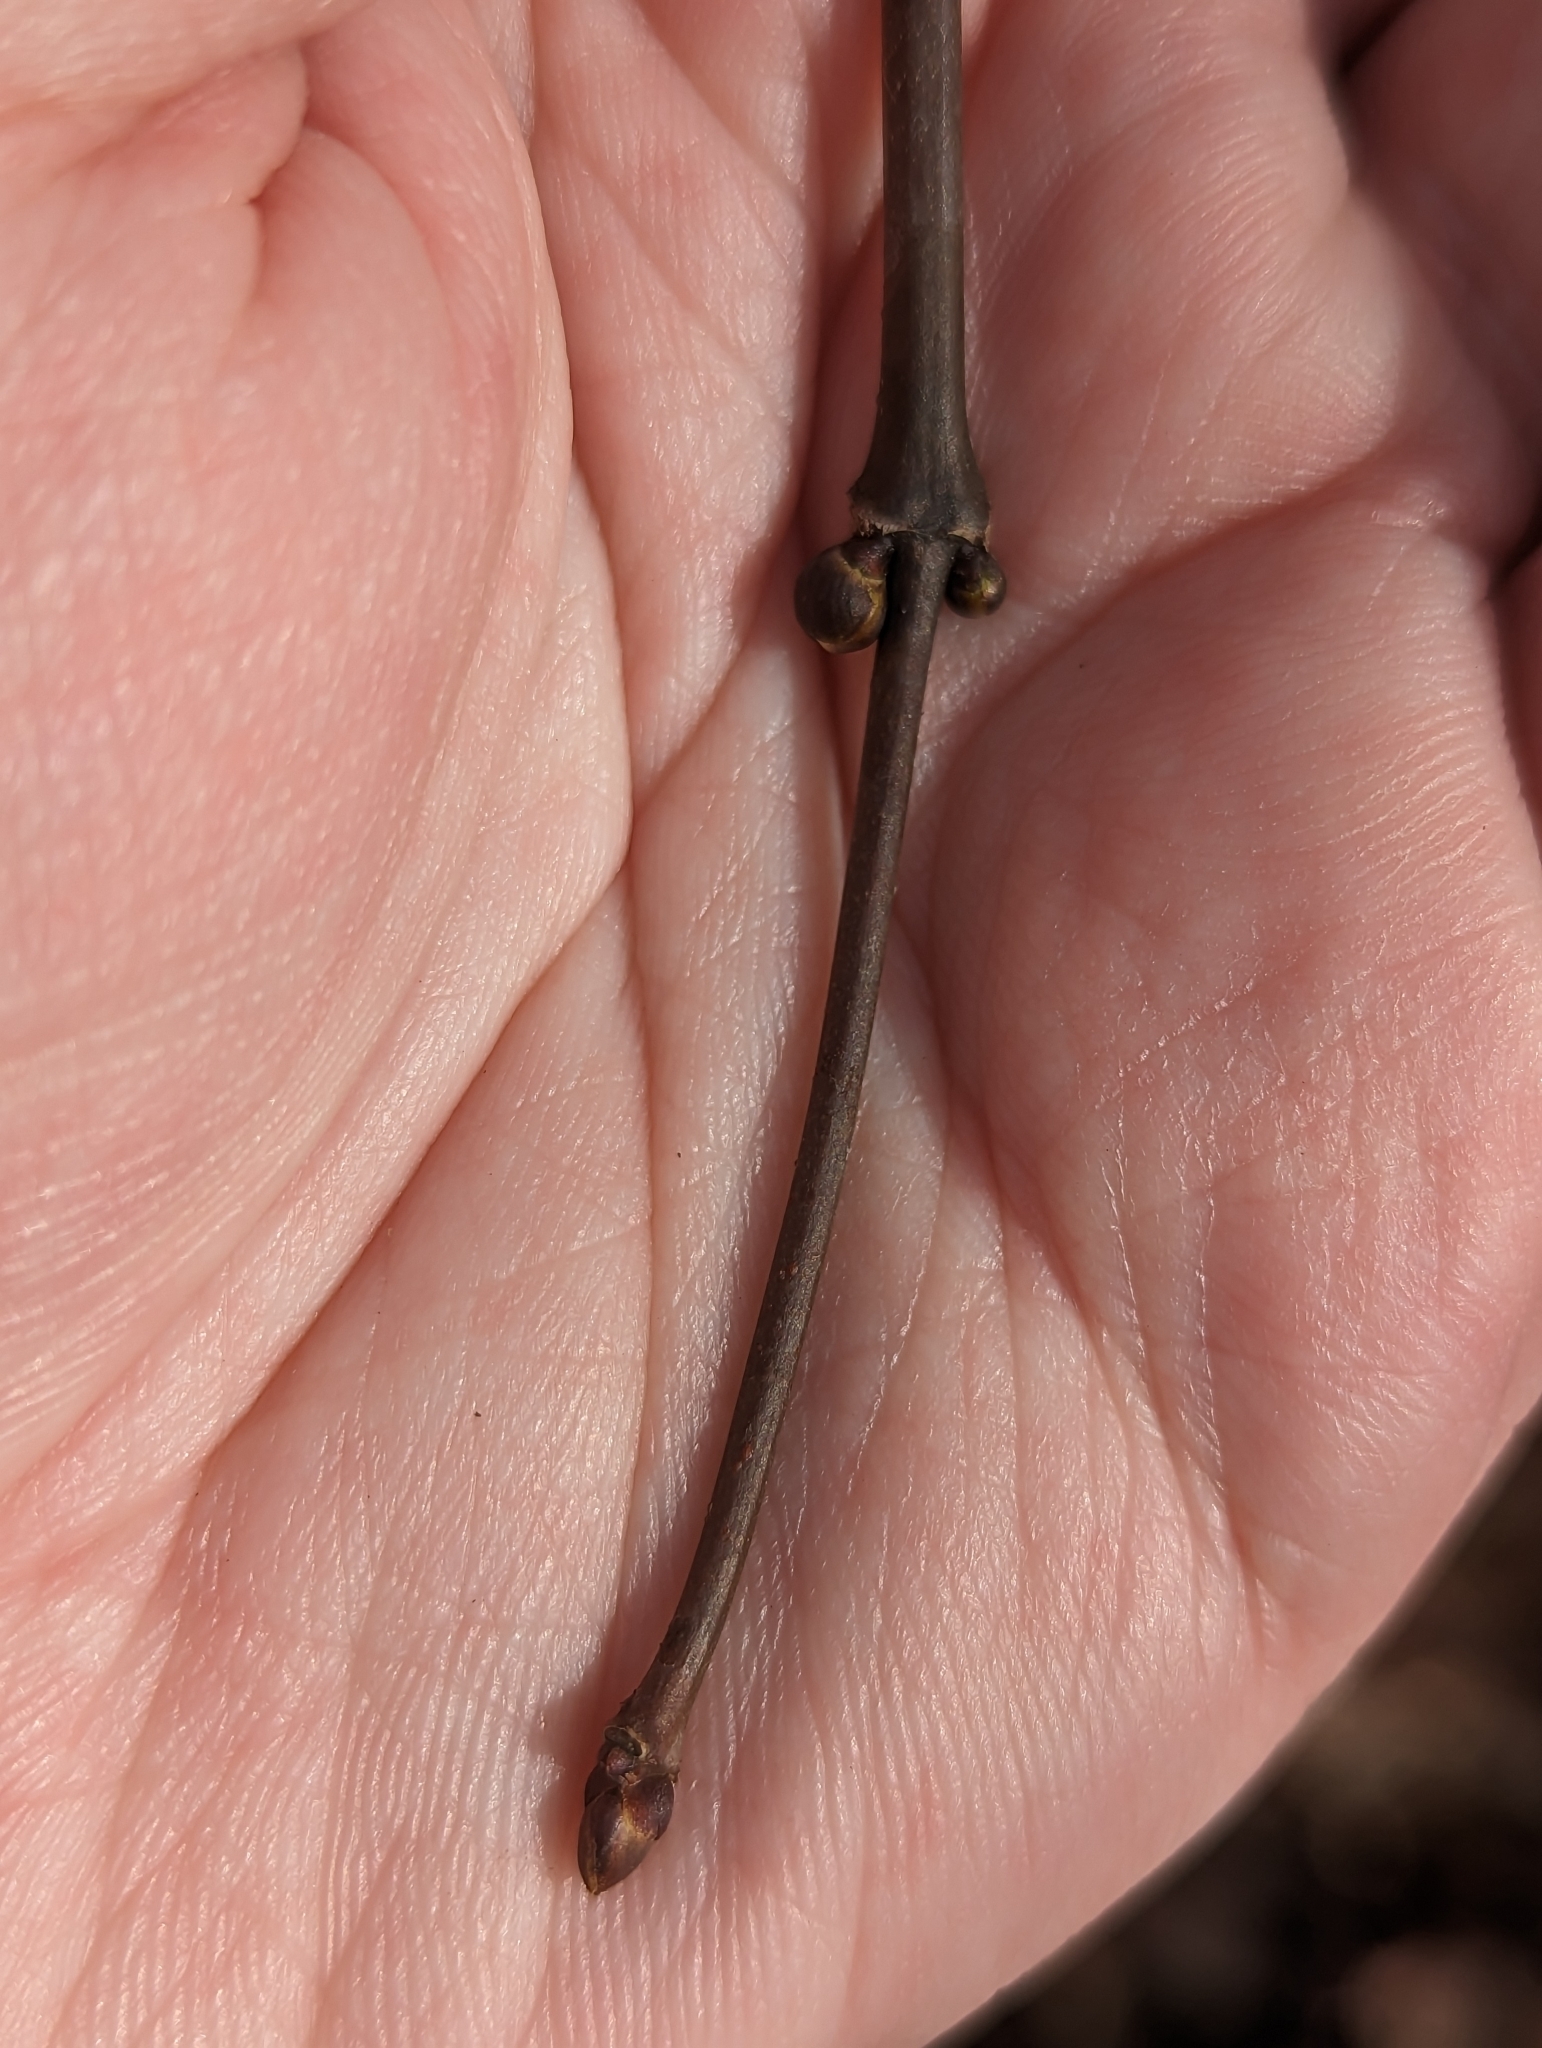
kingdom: Plantae
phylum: Tracheophyta
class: Magnoliopsida
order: Crossosomatales
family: Staphyleaceae
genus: Staphylea
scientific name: Staphylea trifolia
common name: American bladdernut
